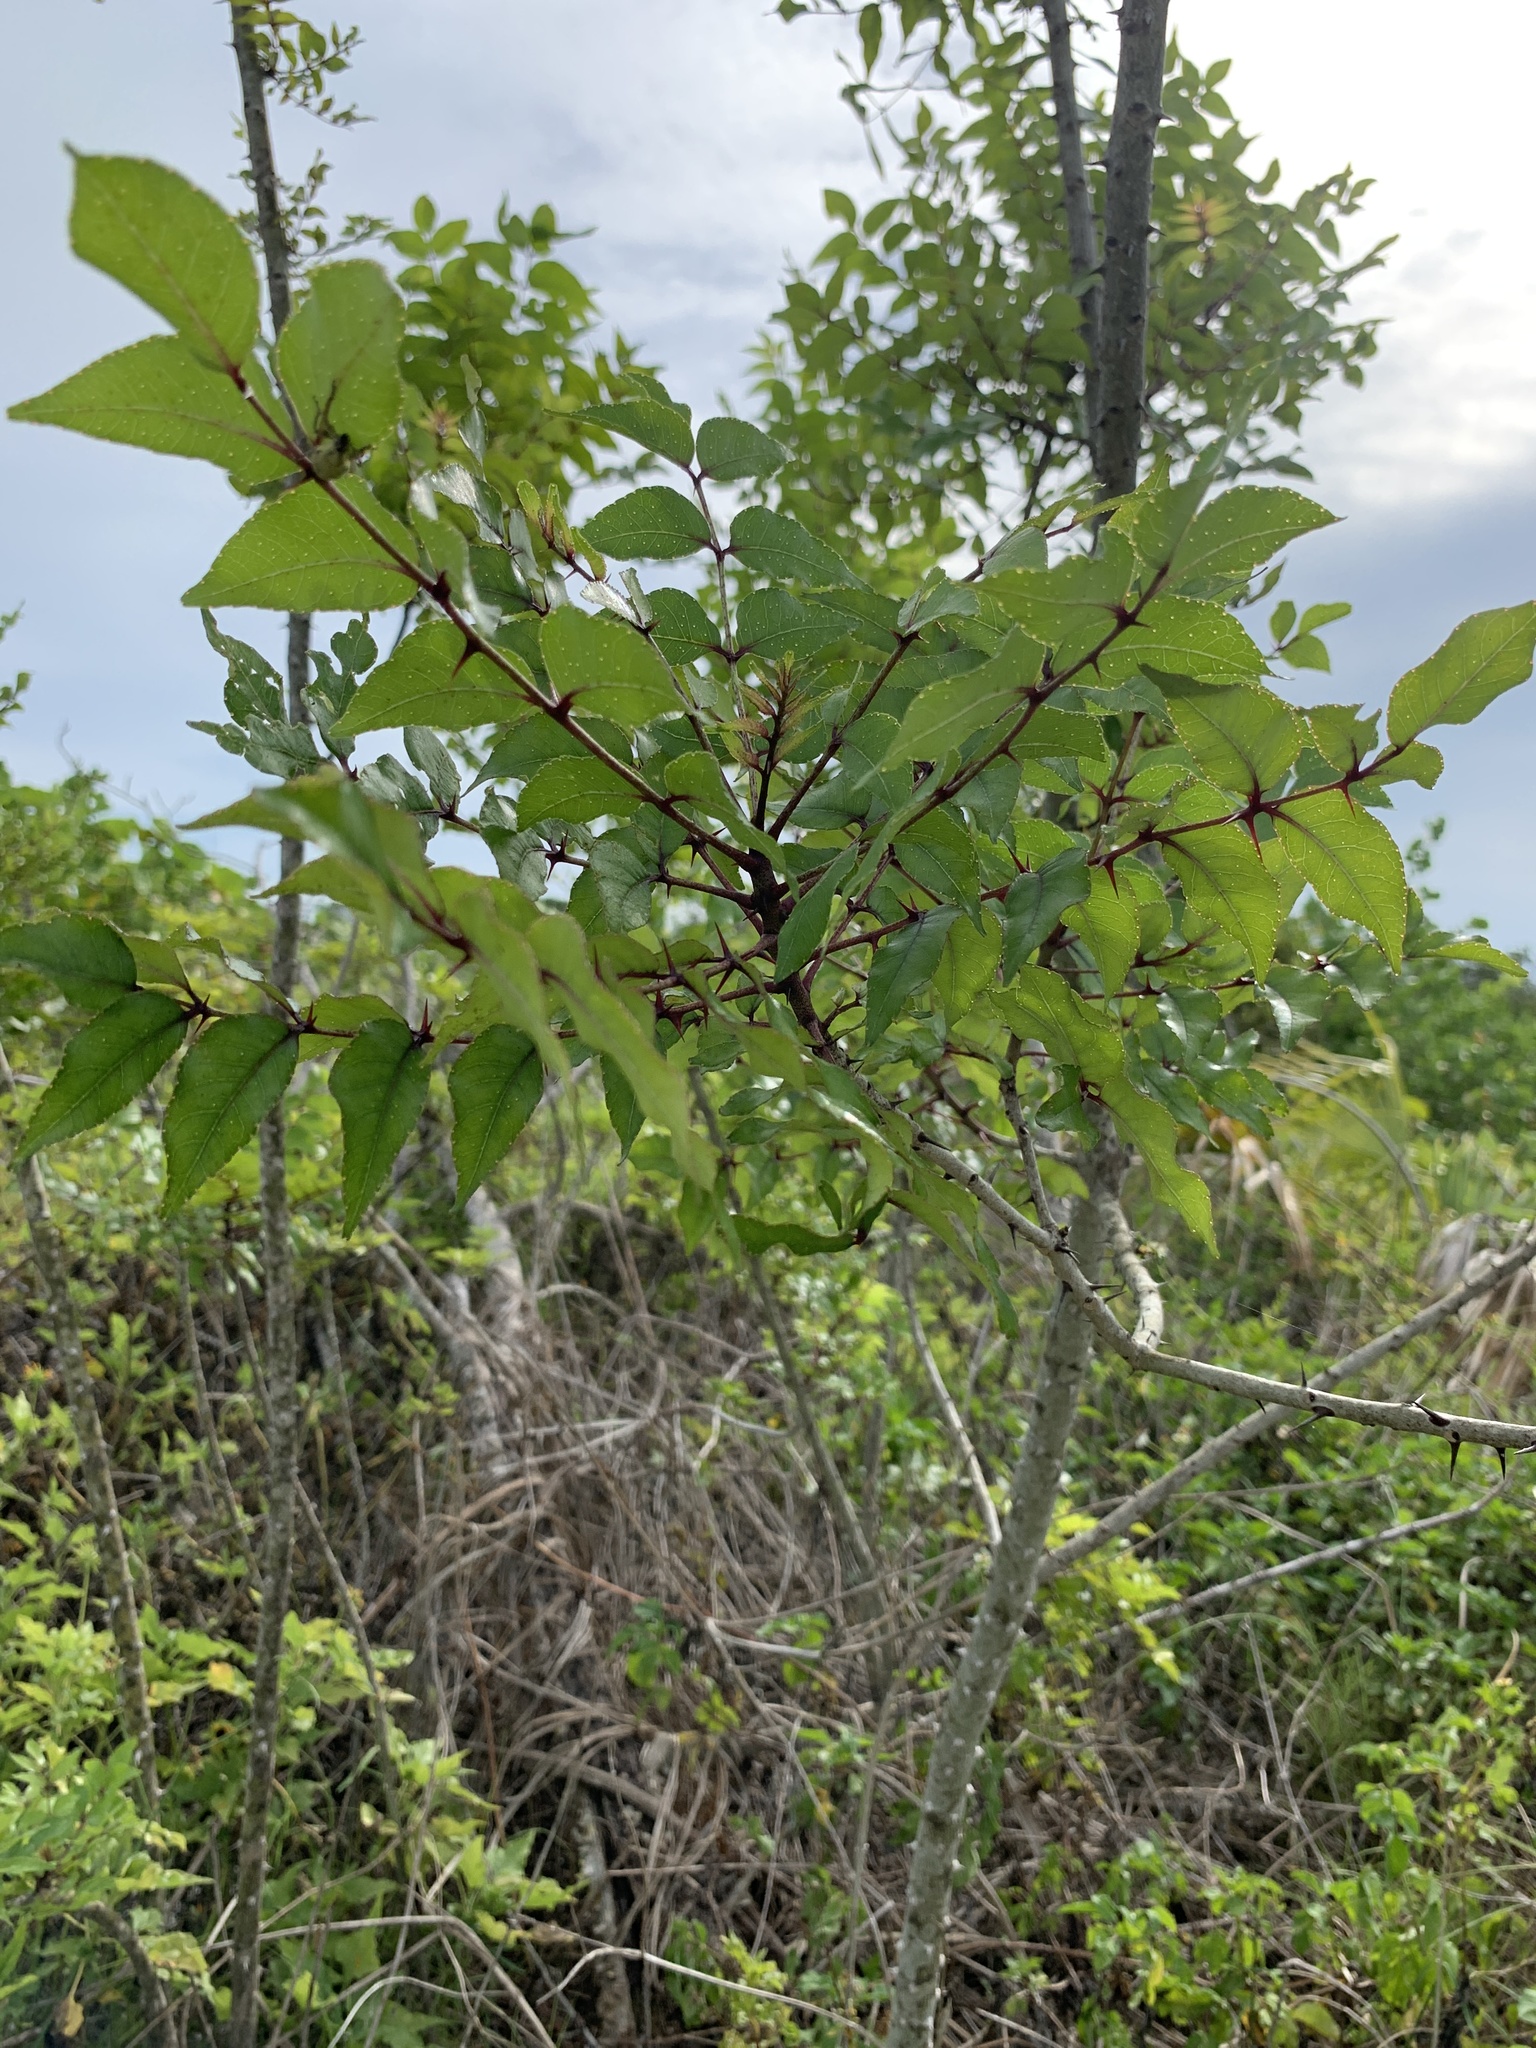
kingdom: Plantae
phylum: Tracheophyta
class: Magnoliopsida
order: Sapindales
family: Rutaceae
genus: Zanthoxylum
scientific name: Zanthoxylum clava-herculis
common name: Hercules'-club
